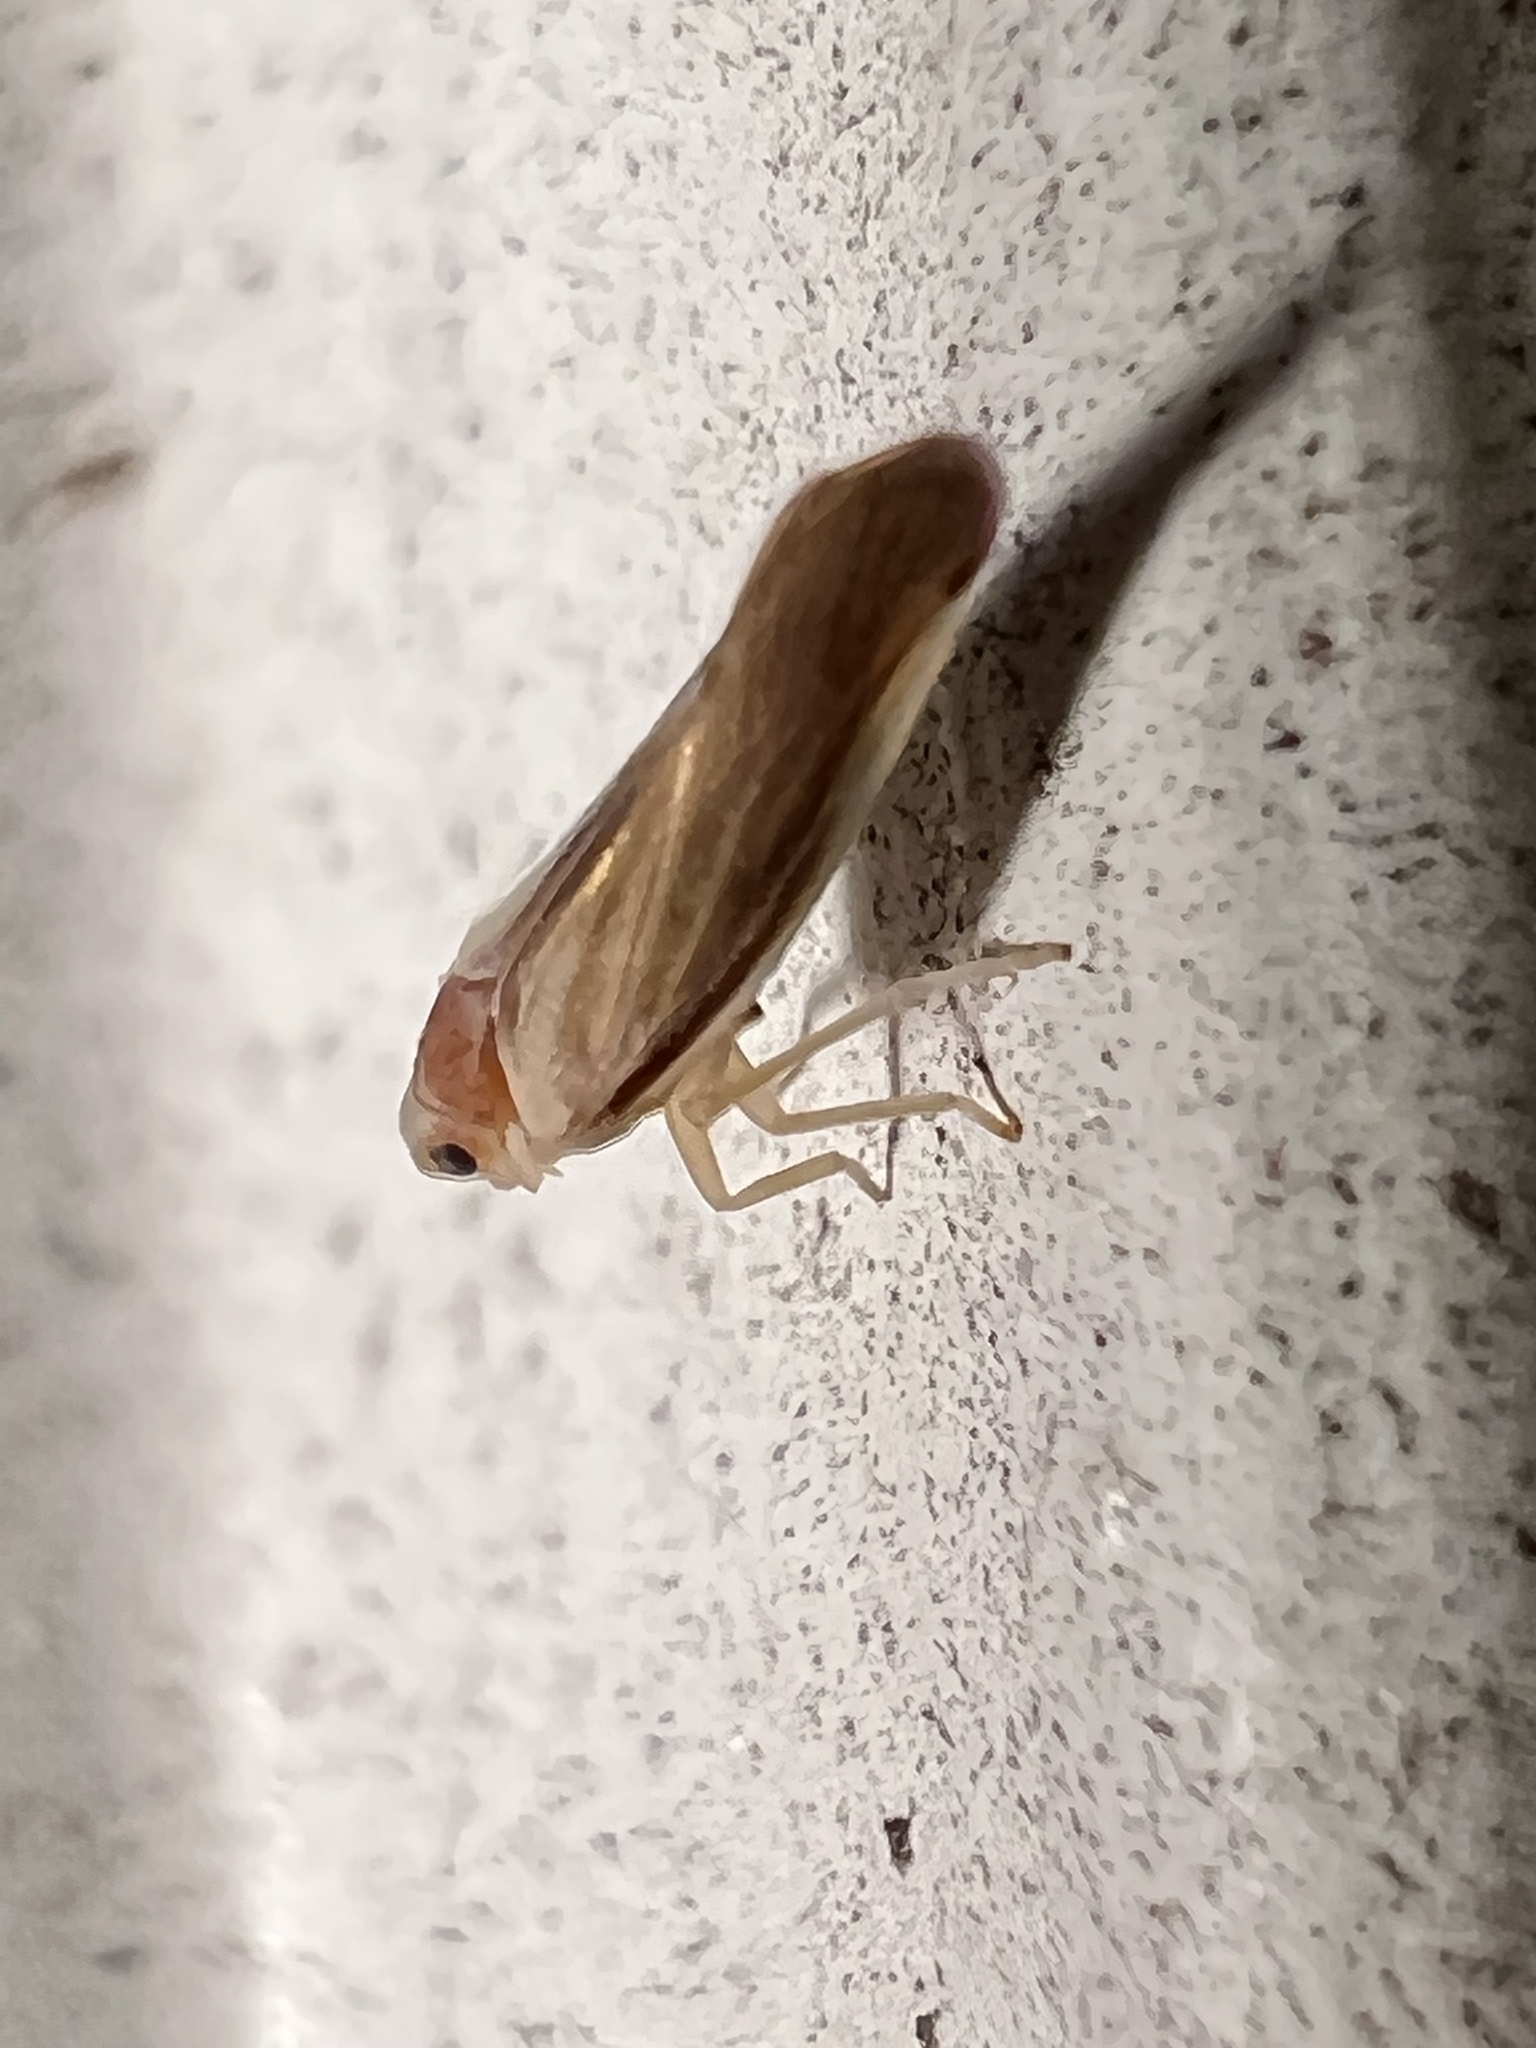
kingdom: Animalia
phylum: Arthropoda
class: Insecta
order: Hemiptera
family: Derbidae
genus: Omolicna
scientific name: Omolicna uhleri
